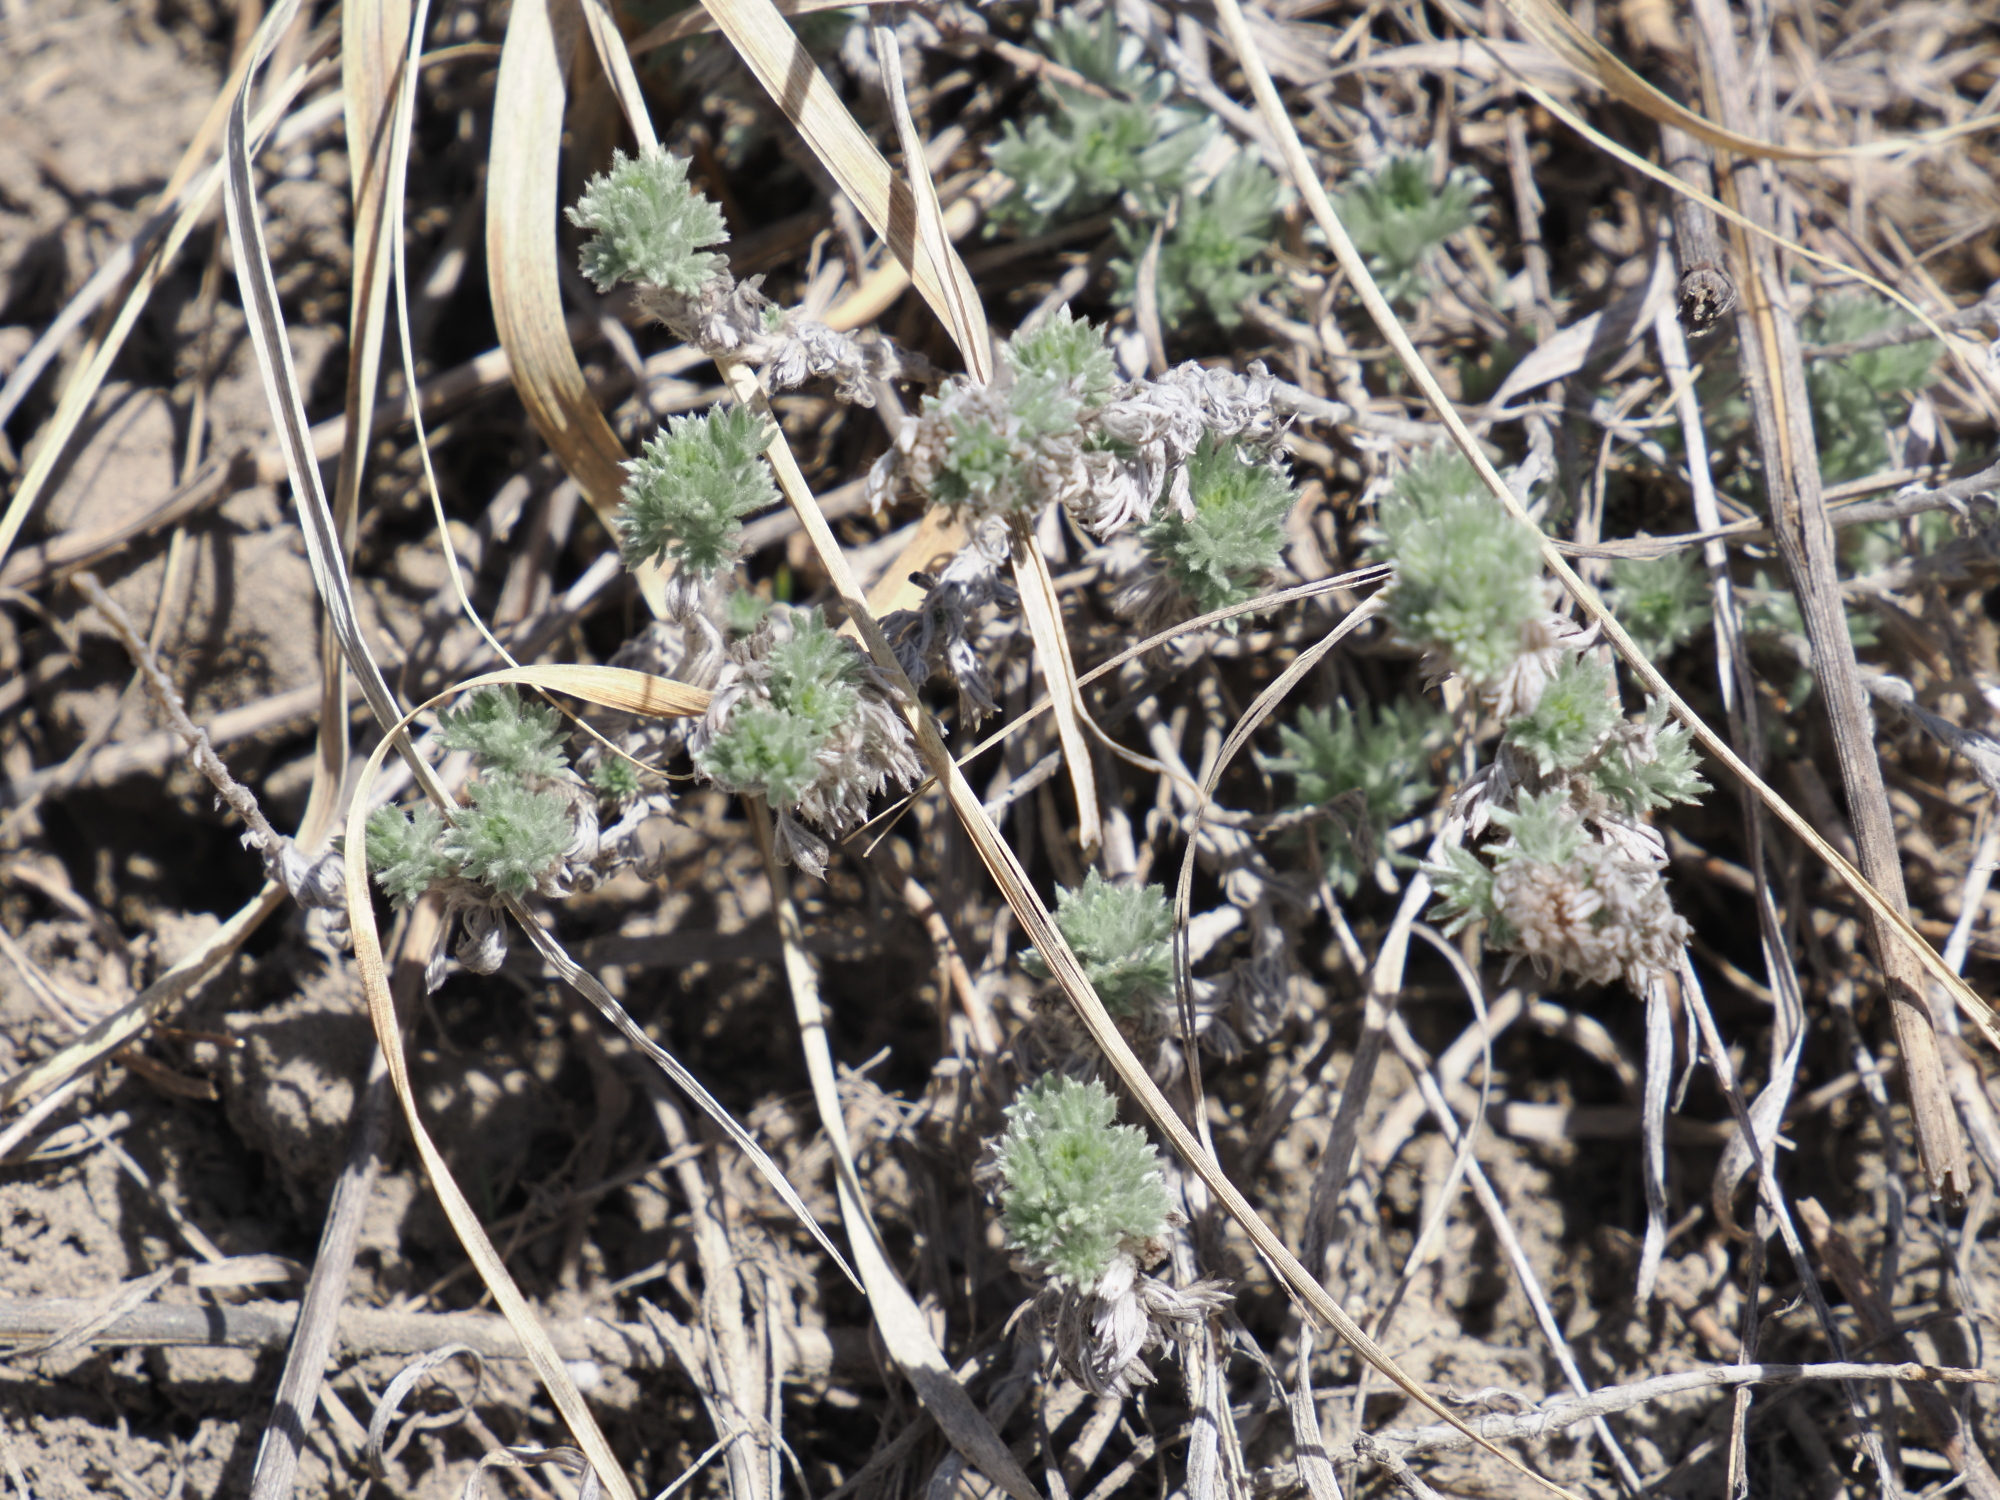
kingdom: Plantae
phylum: Tracheophyta
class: Magnoliopsida
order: Asterales
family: Asteraceae
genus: Artemisia
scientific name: Artemisia frigida
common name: Prairie sagewort
